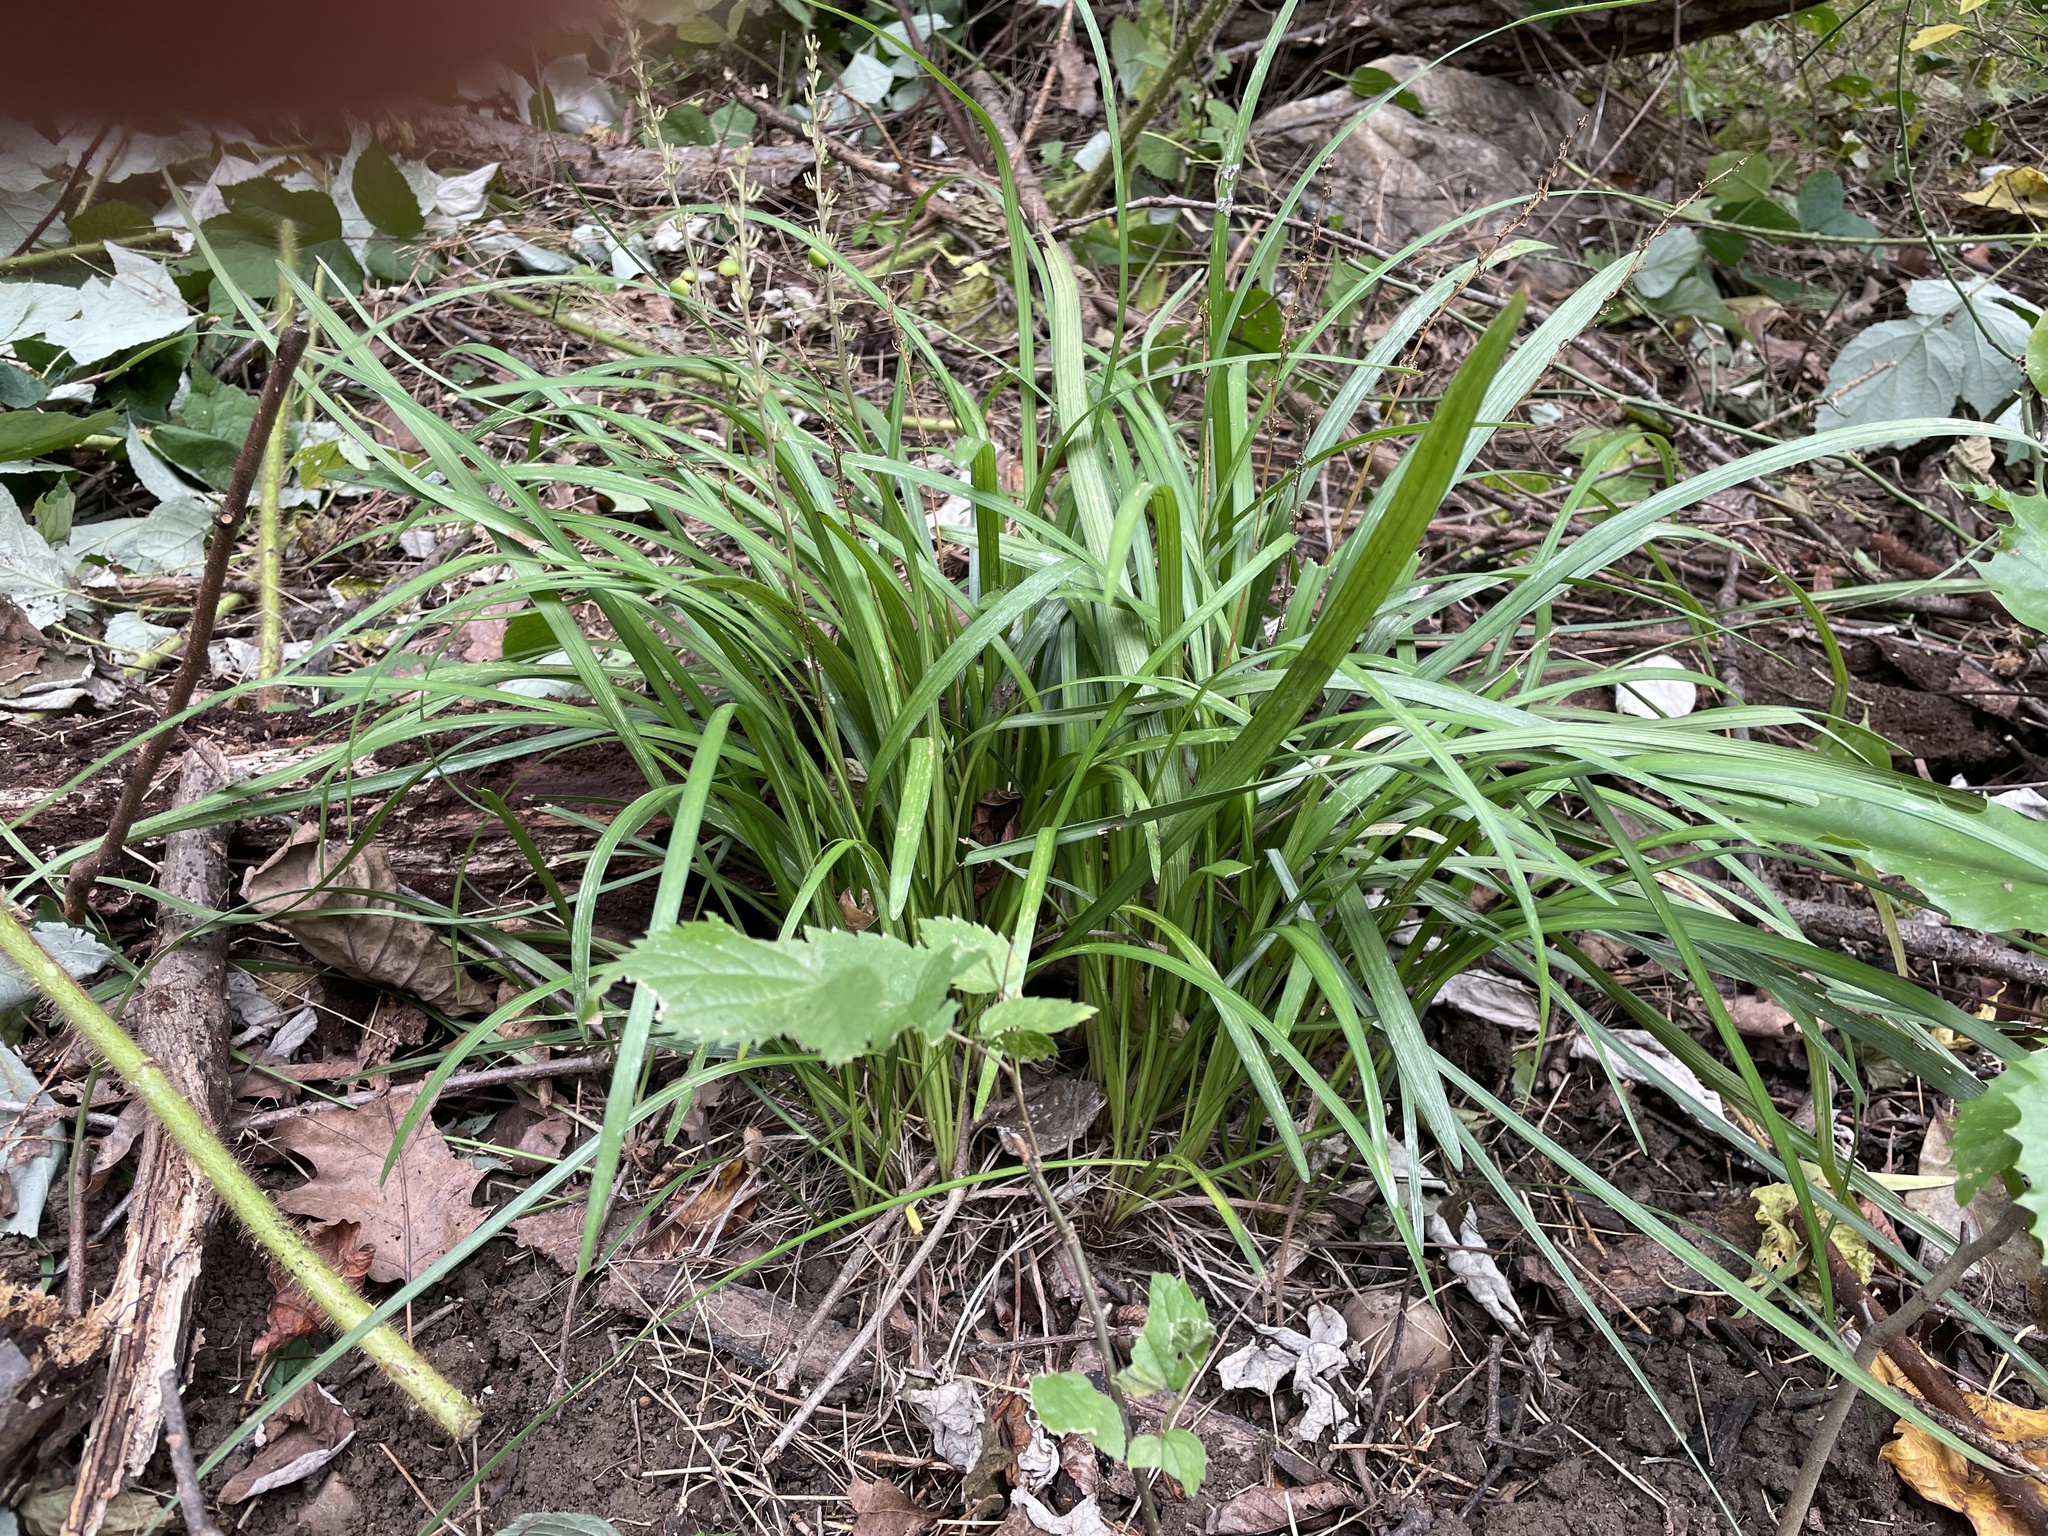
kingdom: Plantae
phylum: Tracheophyta
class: Liliopsida
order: Asparagales
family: Asparagaceae
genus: Liriope
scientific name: Liriope muscari
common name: Big blue lilyturf
